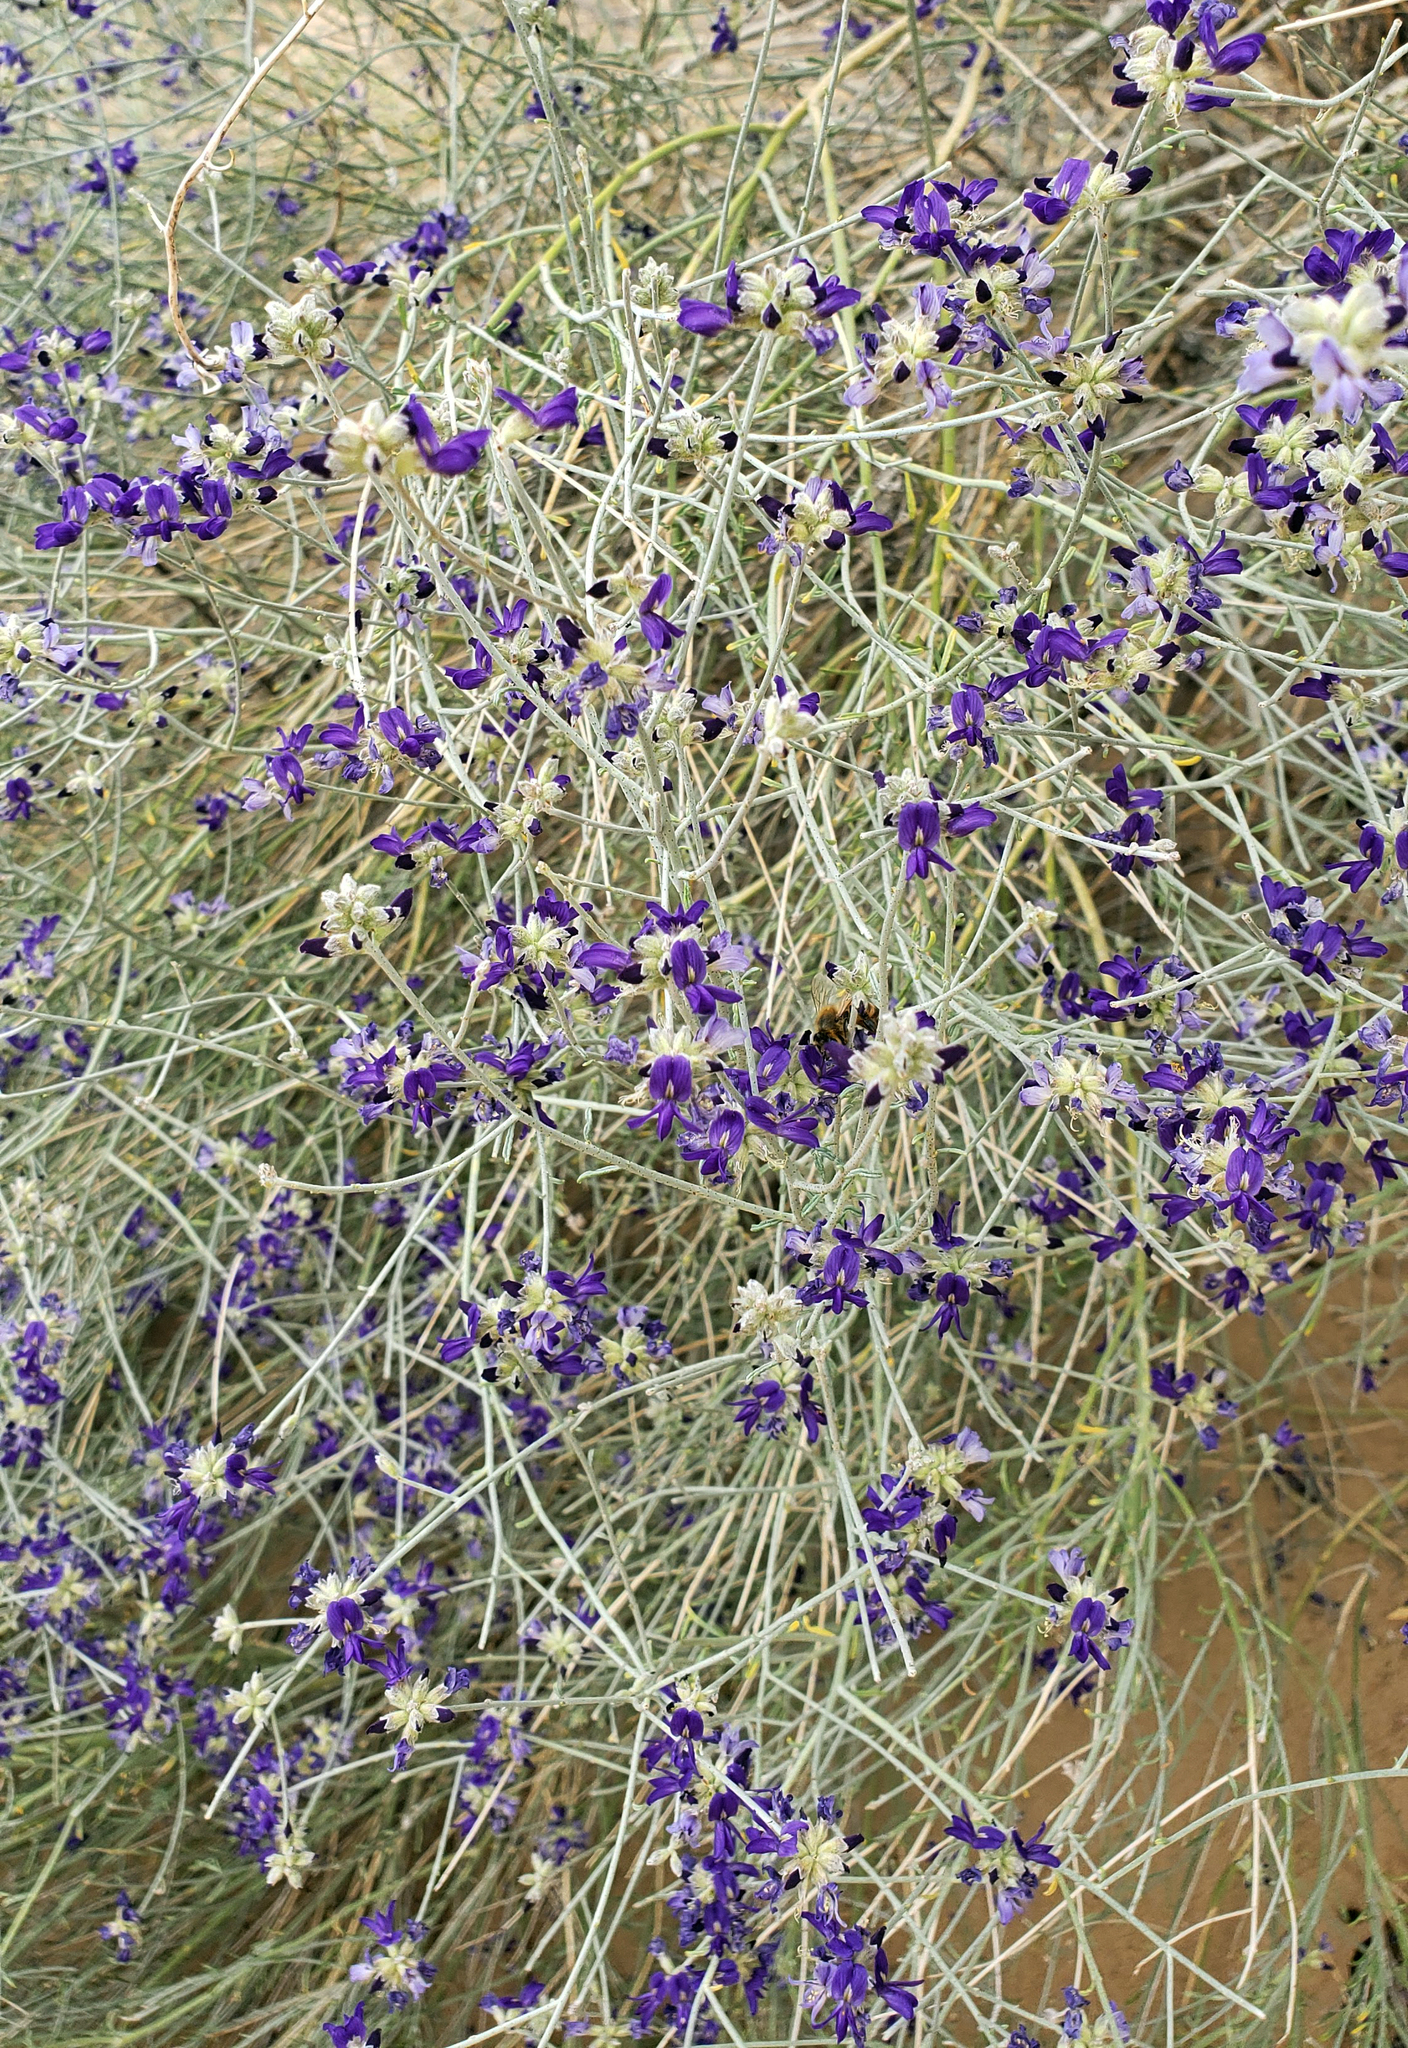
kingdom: Plantae
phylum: Tracheophyta
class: Magnoliopsida
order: Fabales
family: Fabaceae
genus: Psorothamnus
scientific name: Psorothamnus scoparius
